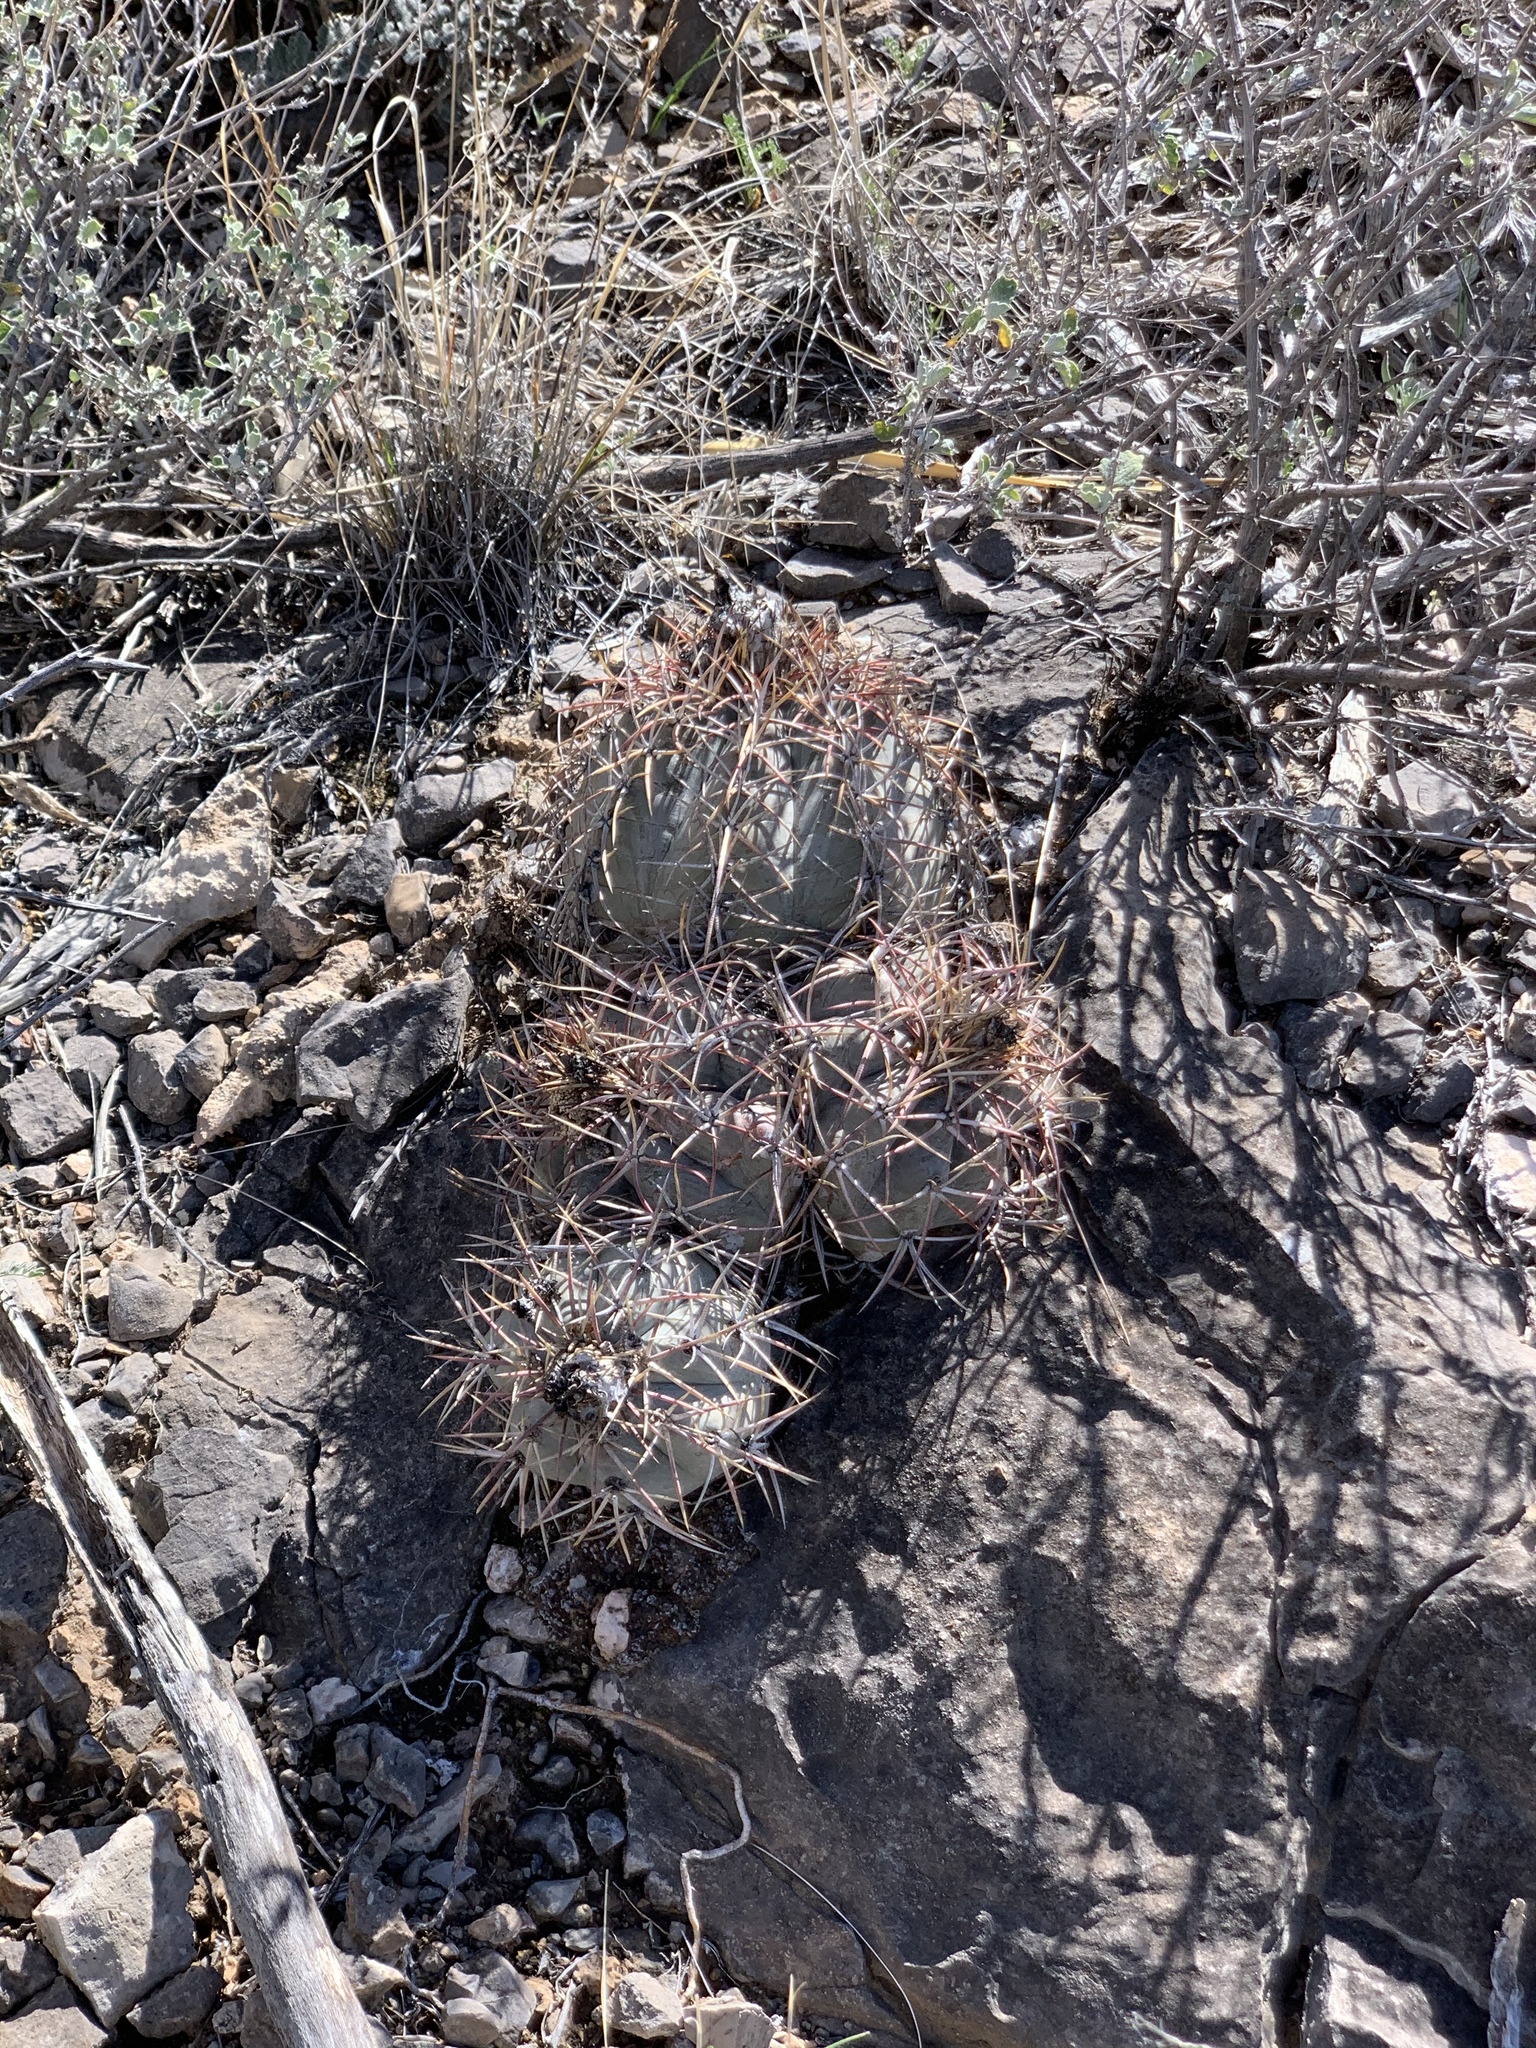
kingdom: Plantae
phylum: Tracheophyta
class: Magnoliopsida
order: Caryophyllales
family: Cactaceae
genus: Echinocactus
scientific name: Echinocactus horizonthalonius
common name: Devilshead
